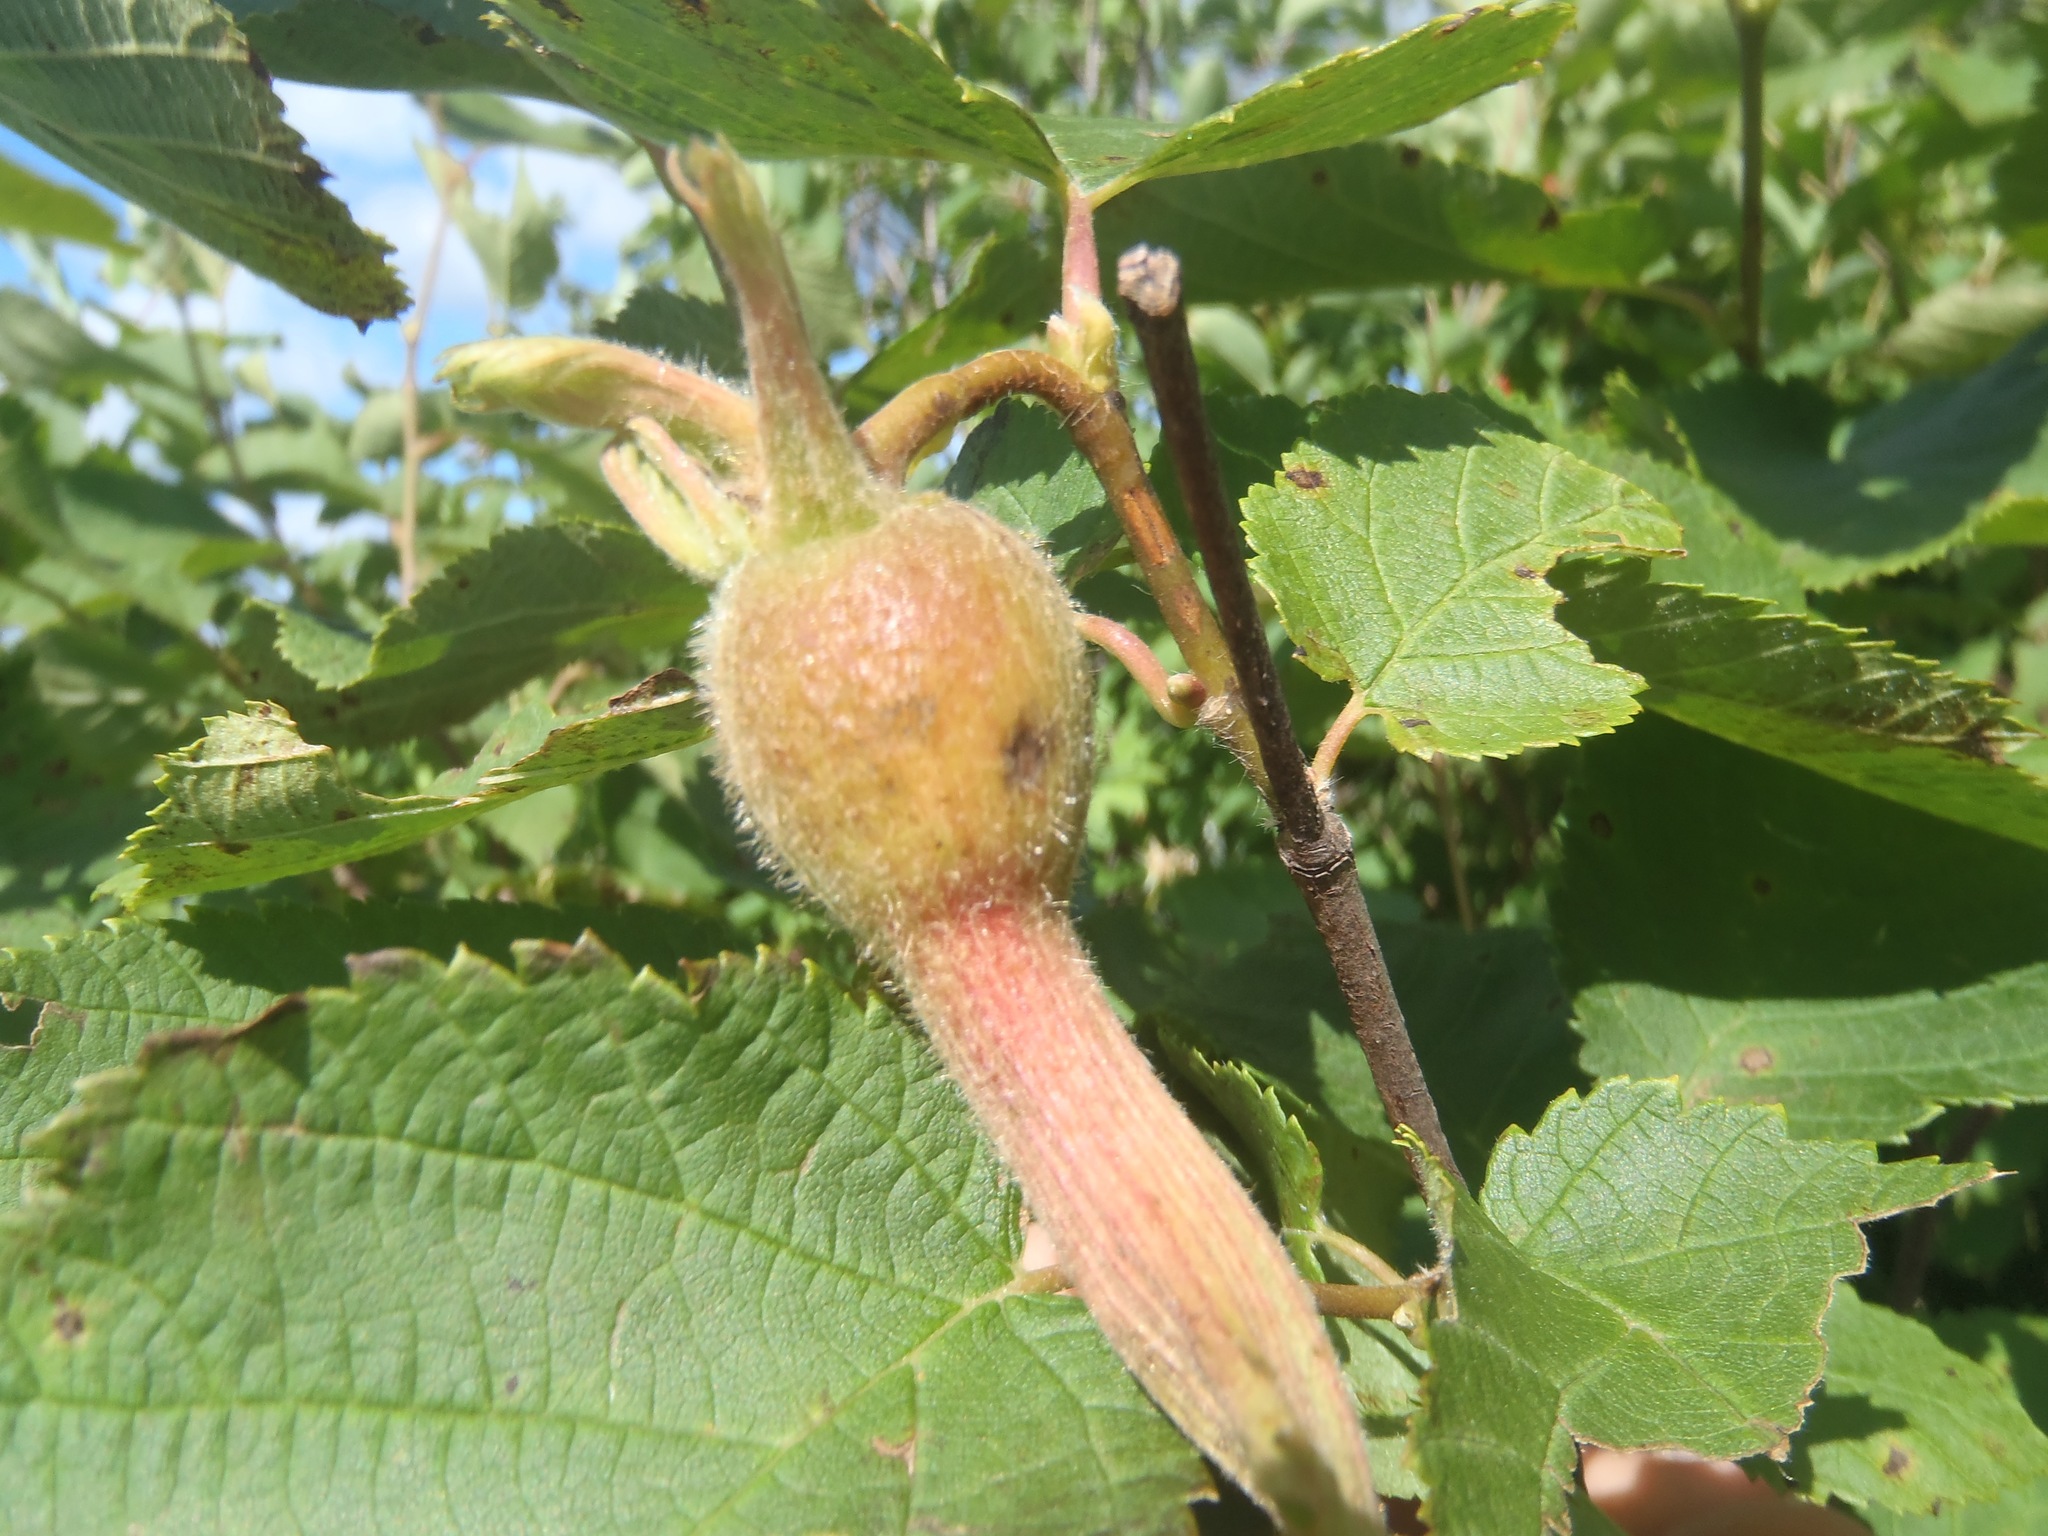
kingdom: Plantae
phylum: Tracheophyta
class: Magnoliopsida
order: Fagales
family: Betulaceae
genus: Corylus
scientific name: Corylus cornuta
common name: Beaked hazel
